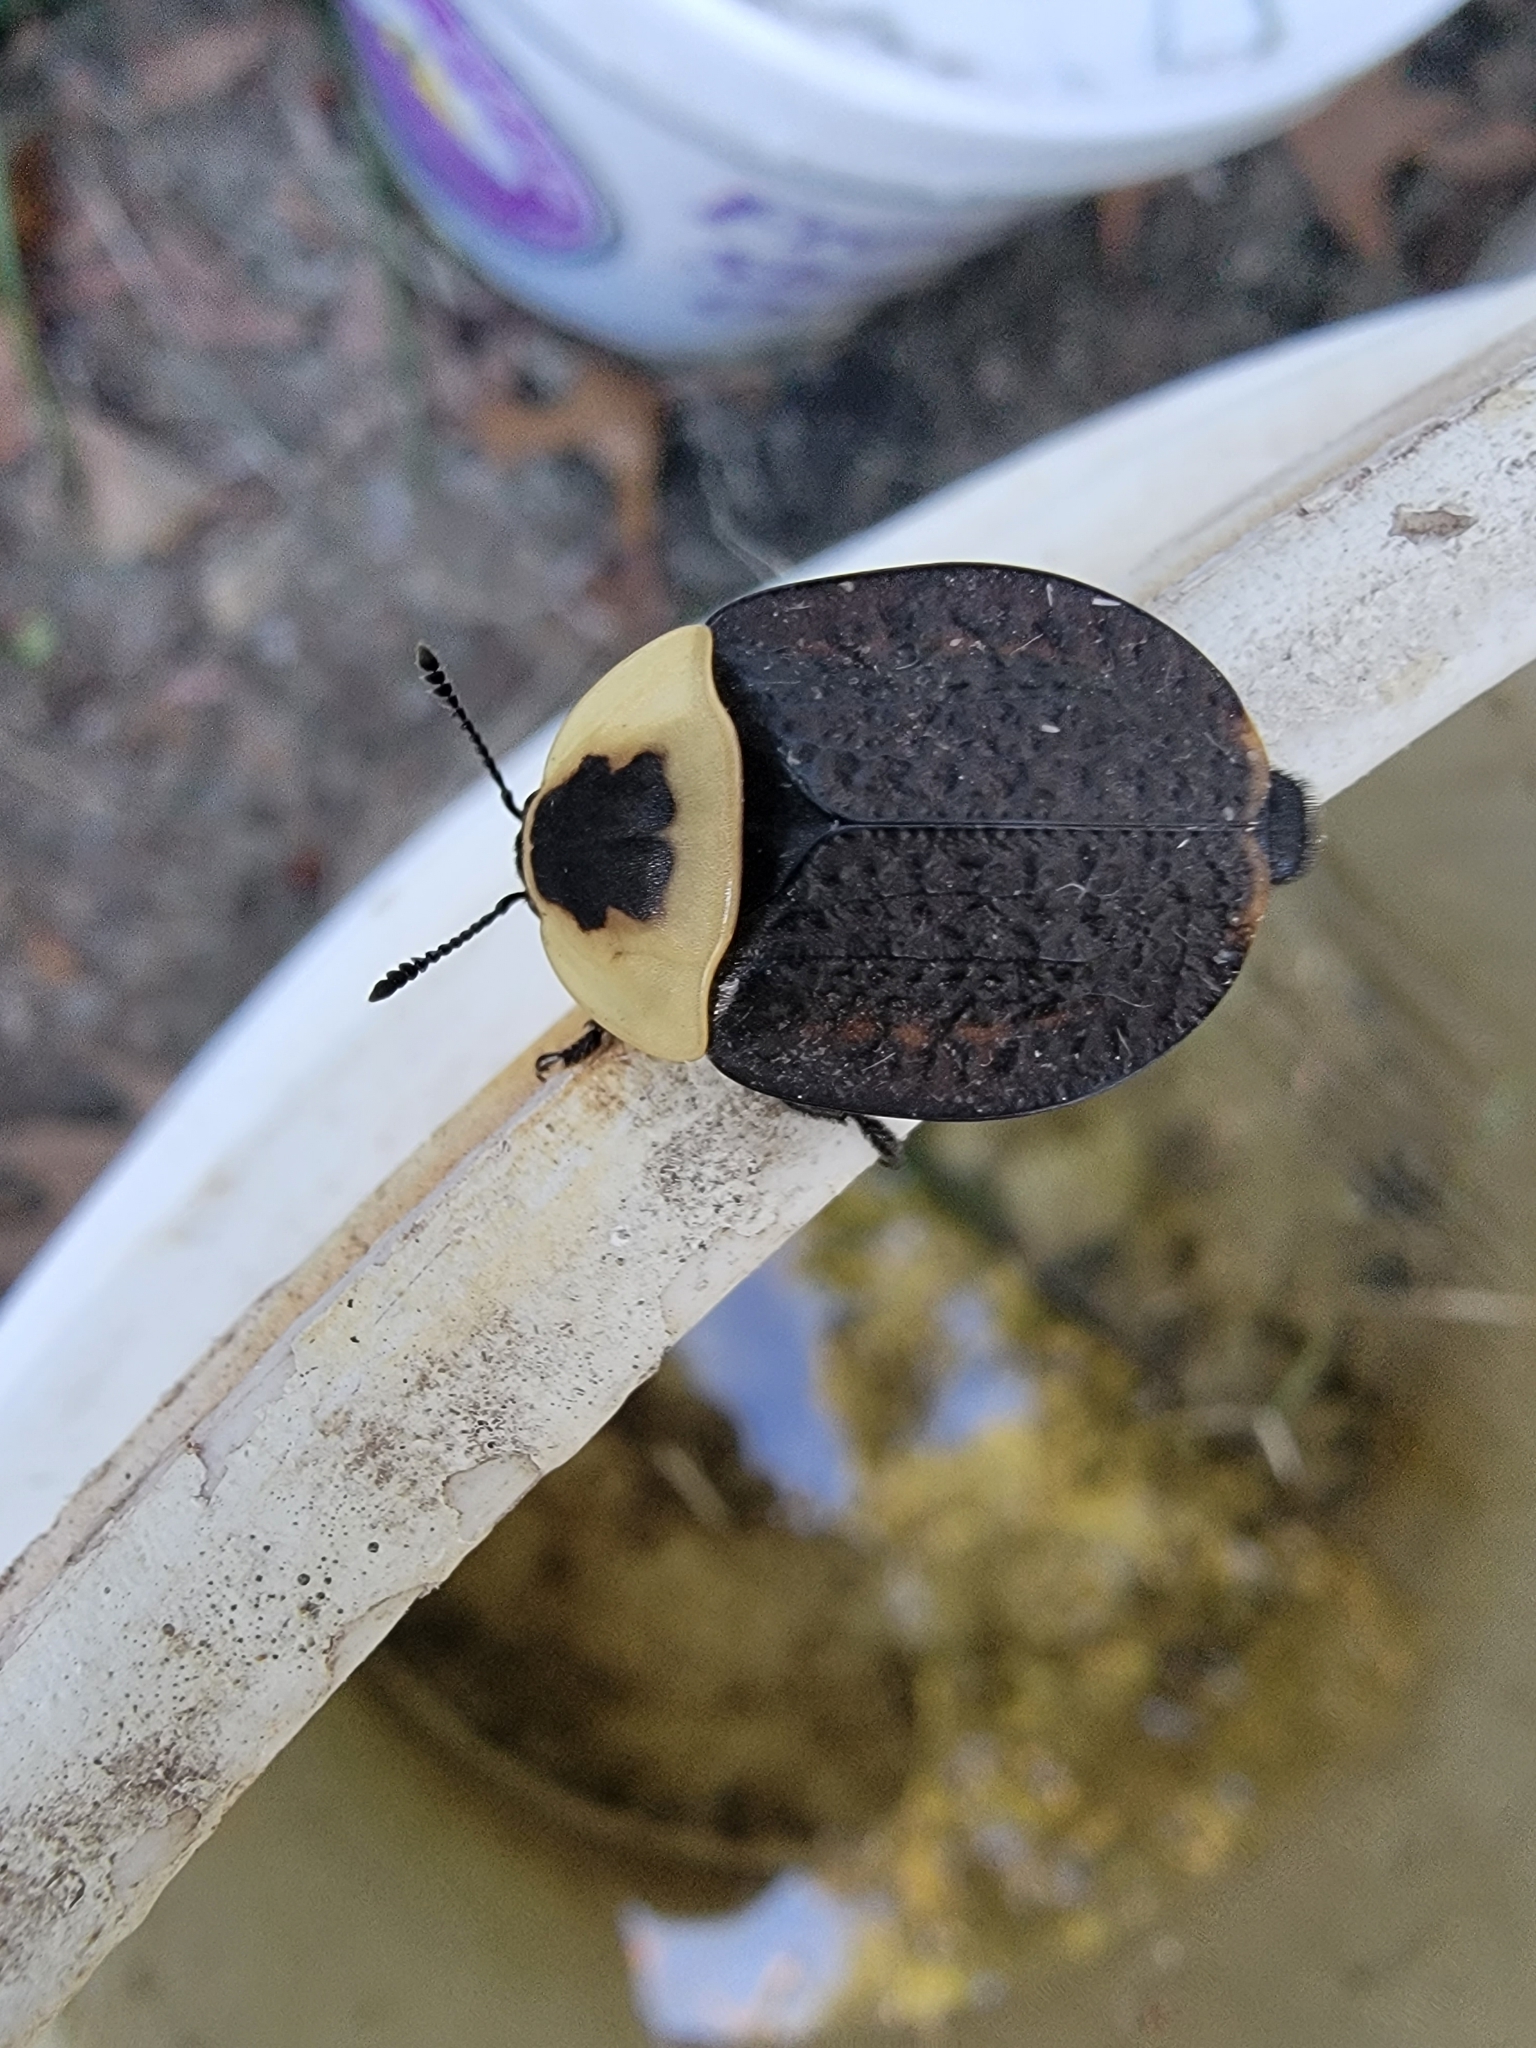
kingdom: Animalia
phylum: Arthropoda
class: Insecta
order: Coleoptera
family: Staphylinidae
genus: Necrophila
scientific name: Necrophila americana
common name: American carrion beetle
